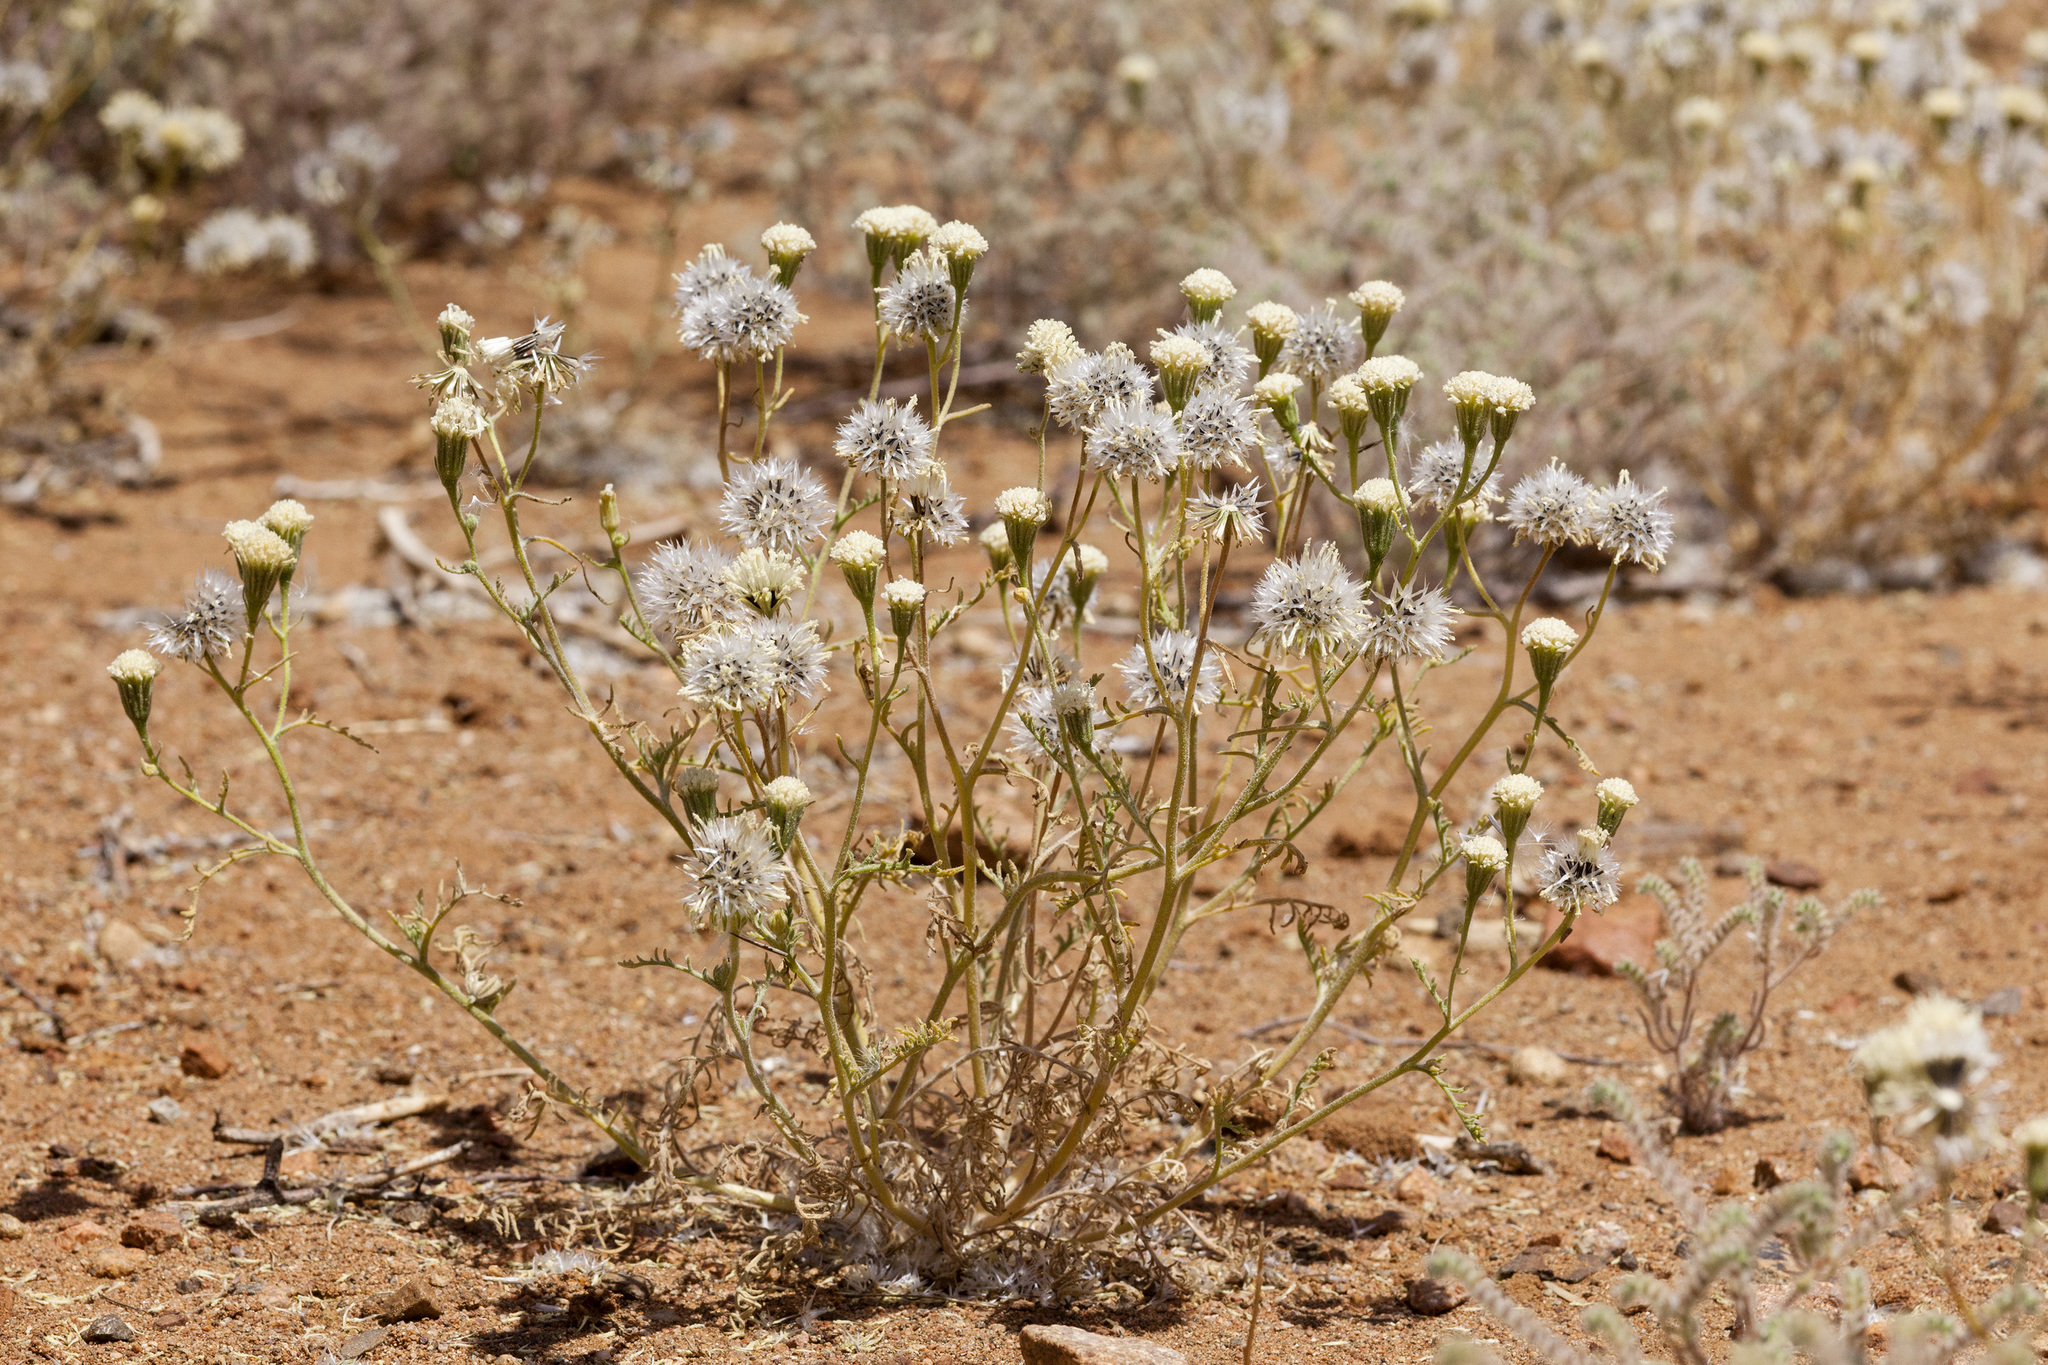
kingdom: Plantae
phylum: Tracheophyta
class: Magnoliopsida
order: Asterales
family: Asteraceae
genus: Chaenactis
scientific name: Chaenactis stevioides
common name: Desert pincushion
